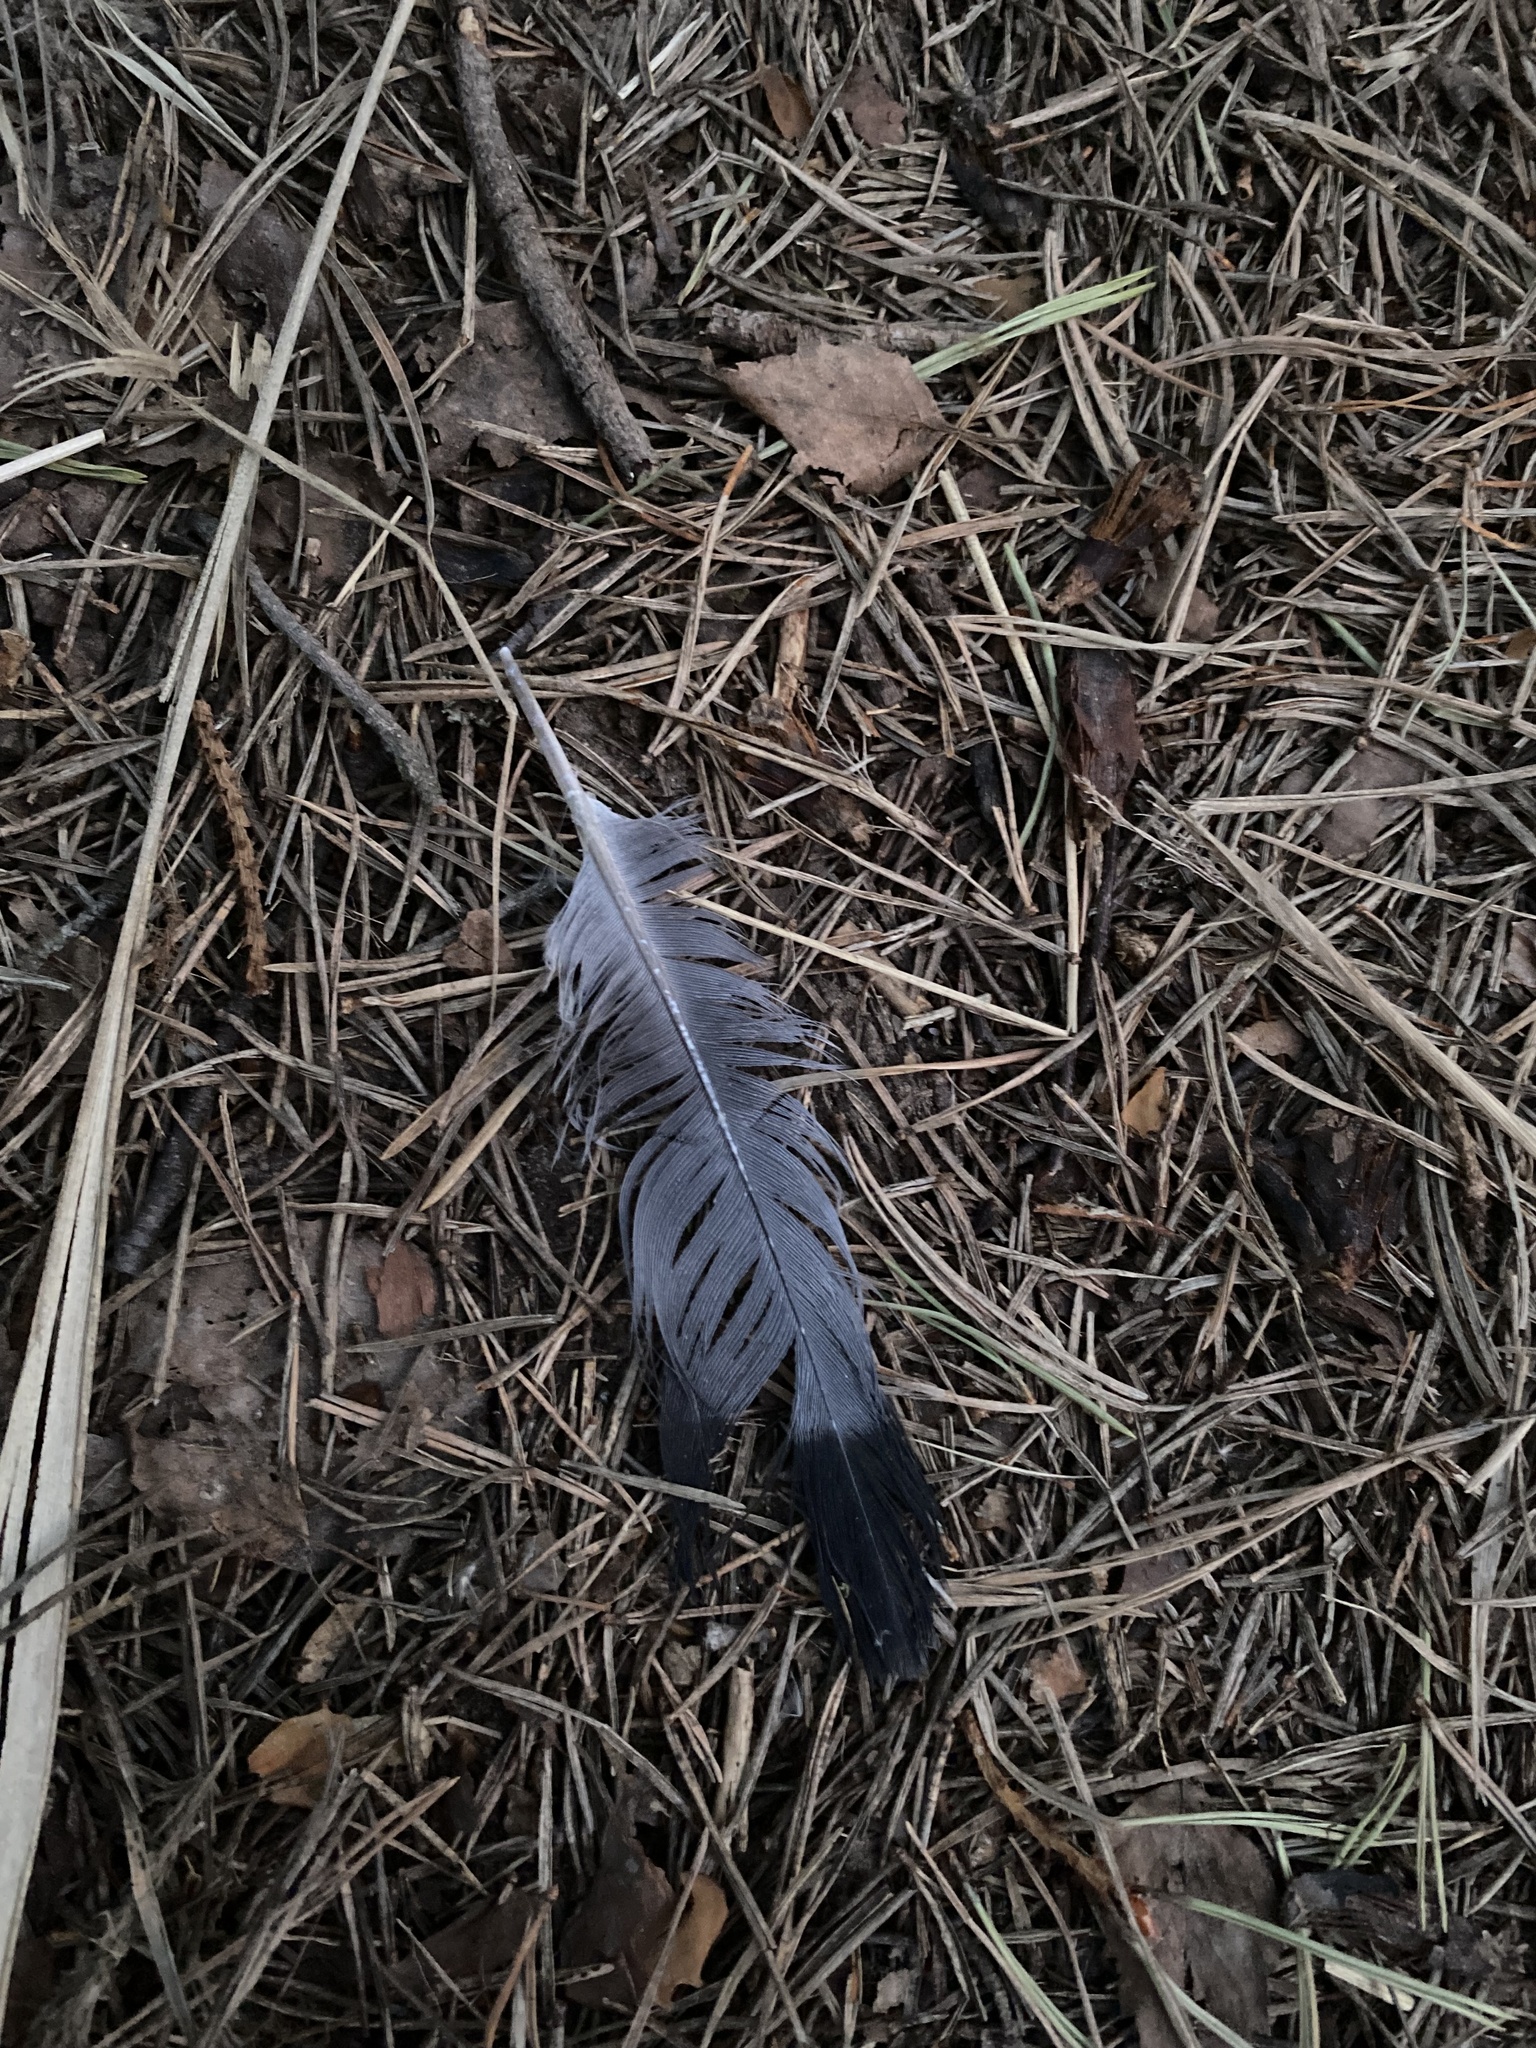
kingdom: Animalia
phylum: Chordata
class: Aves
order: Columbiformes
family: Columbidae
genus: Columba
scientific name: Columba livia
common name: Rock pigeon
